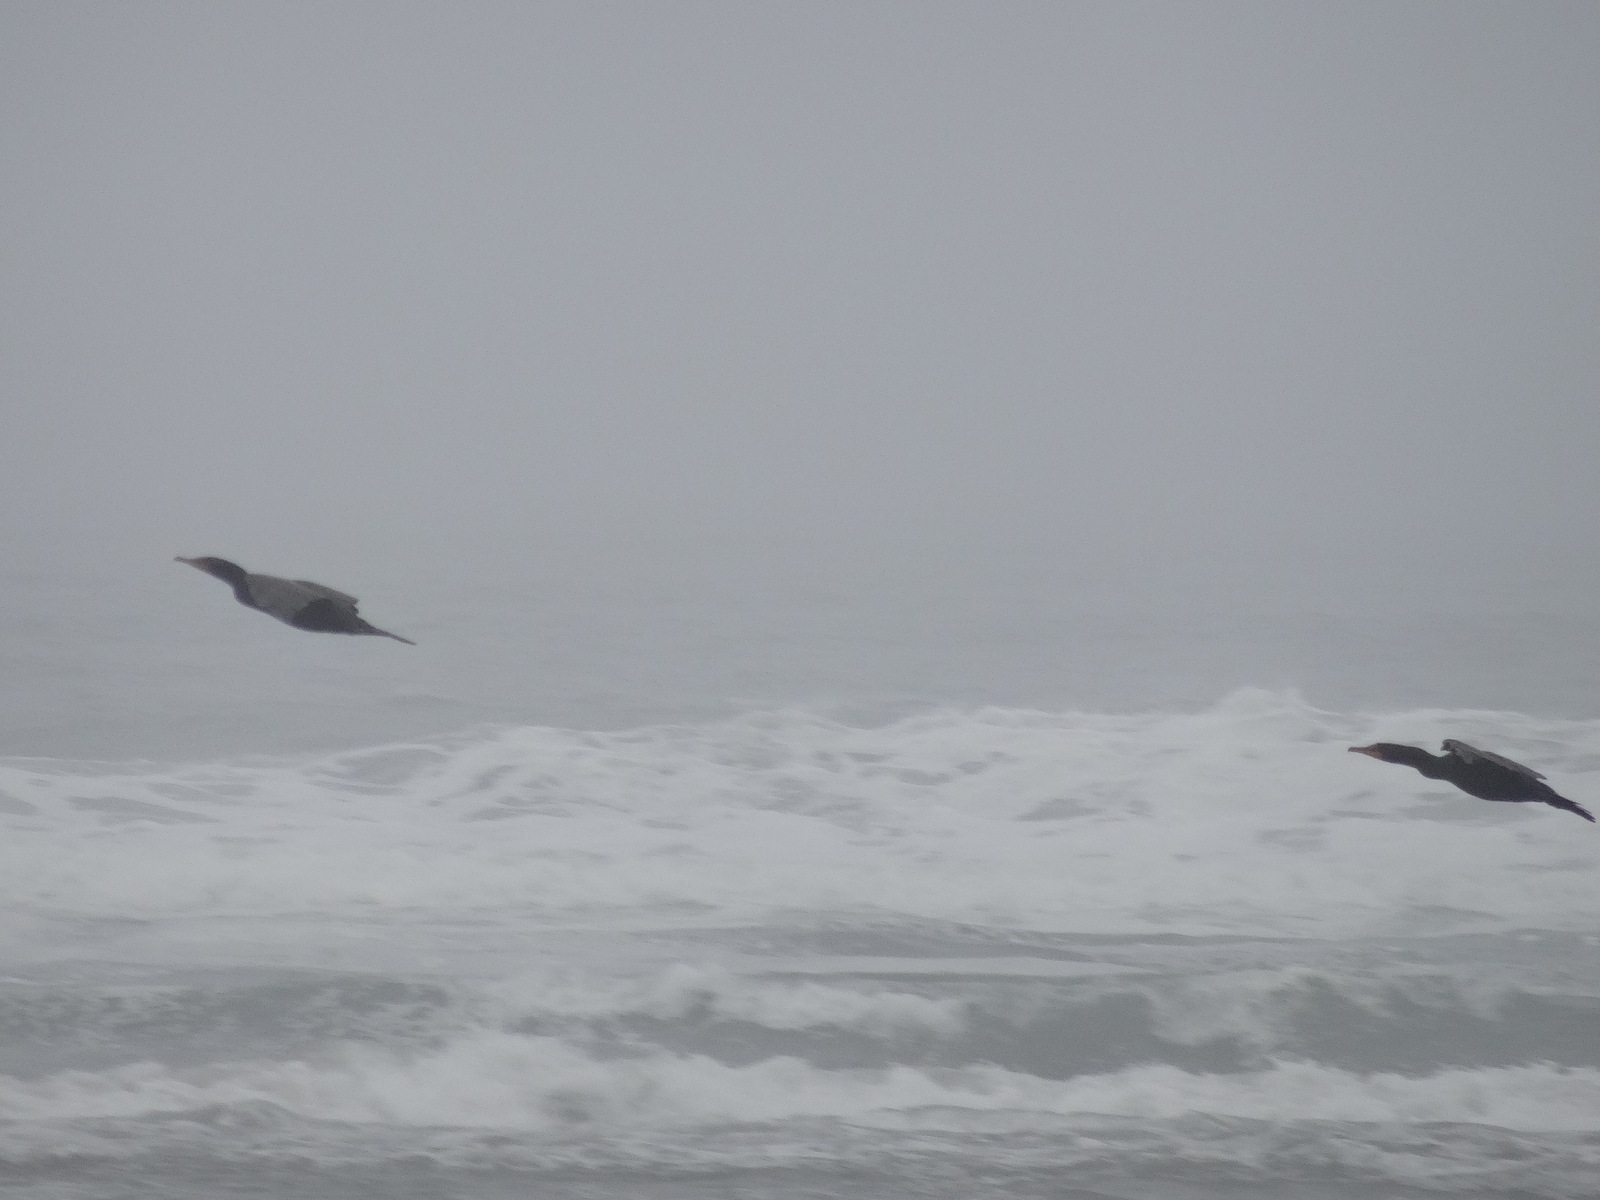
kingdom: Animalia
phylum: Chordata
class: Aves
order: Suliformes
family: Phalacrocoracidae
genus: Phalacrocorax
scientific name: Phalacrocorax auritus
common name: Double-crested cormorant
